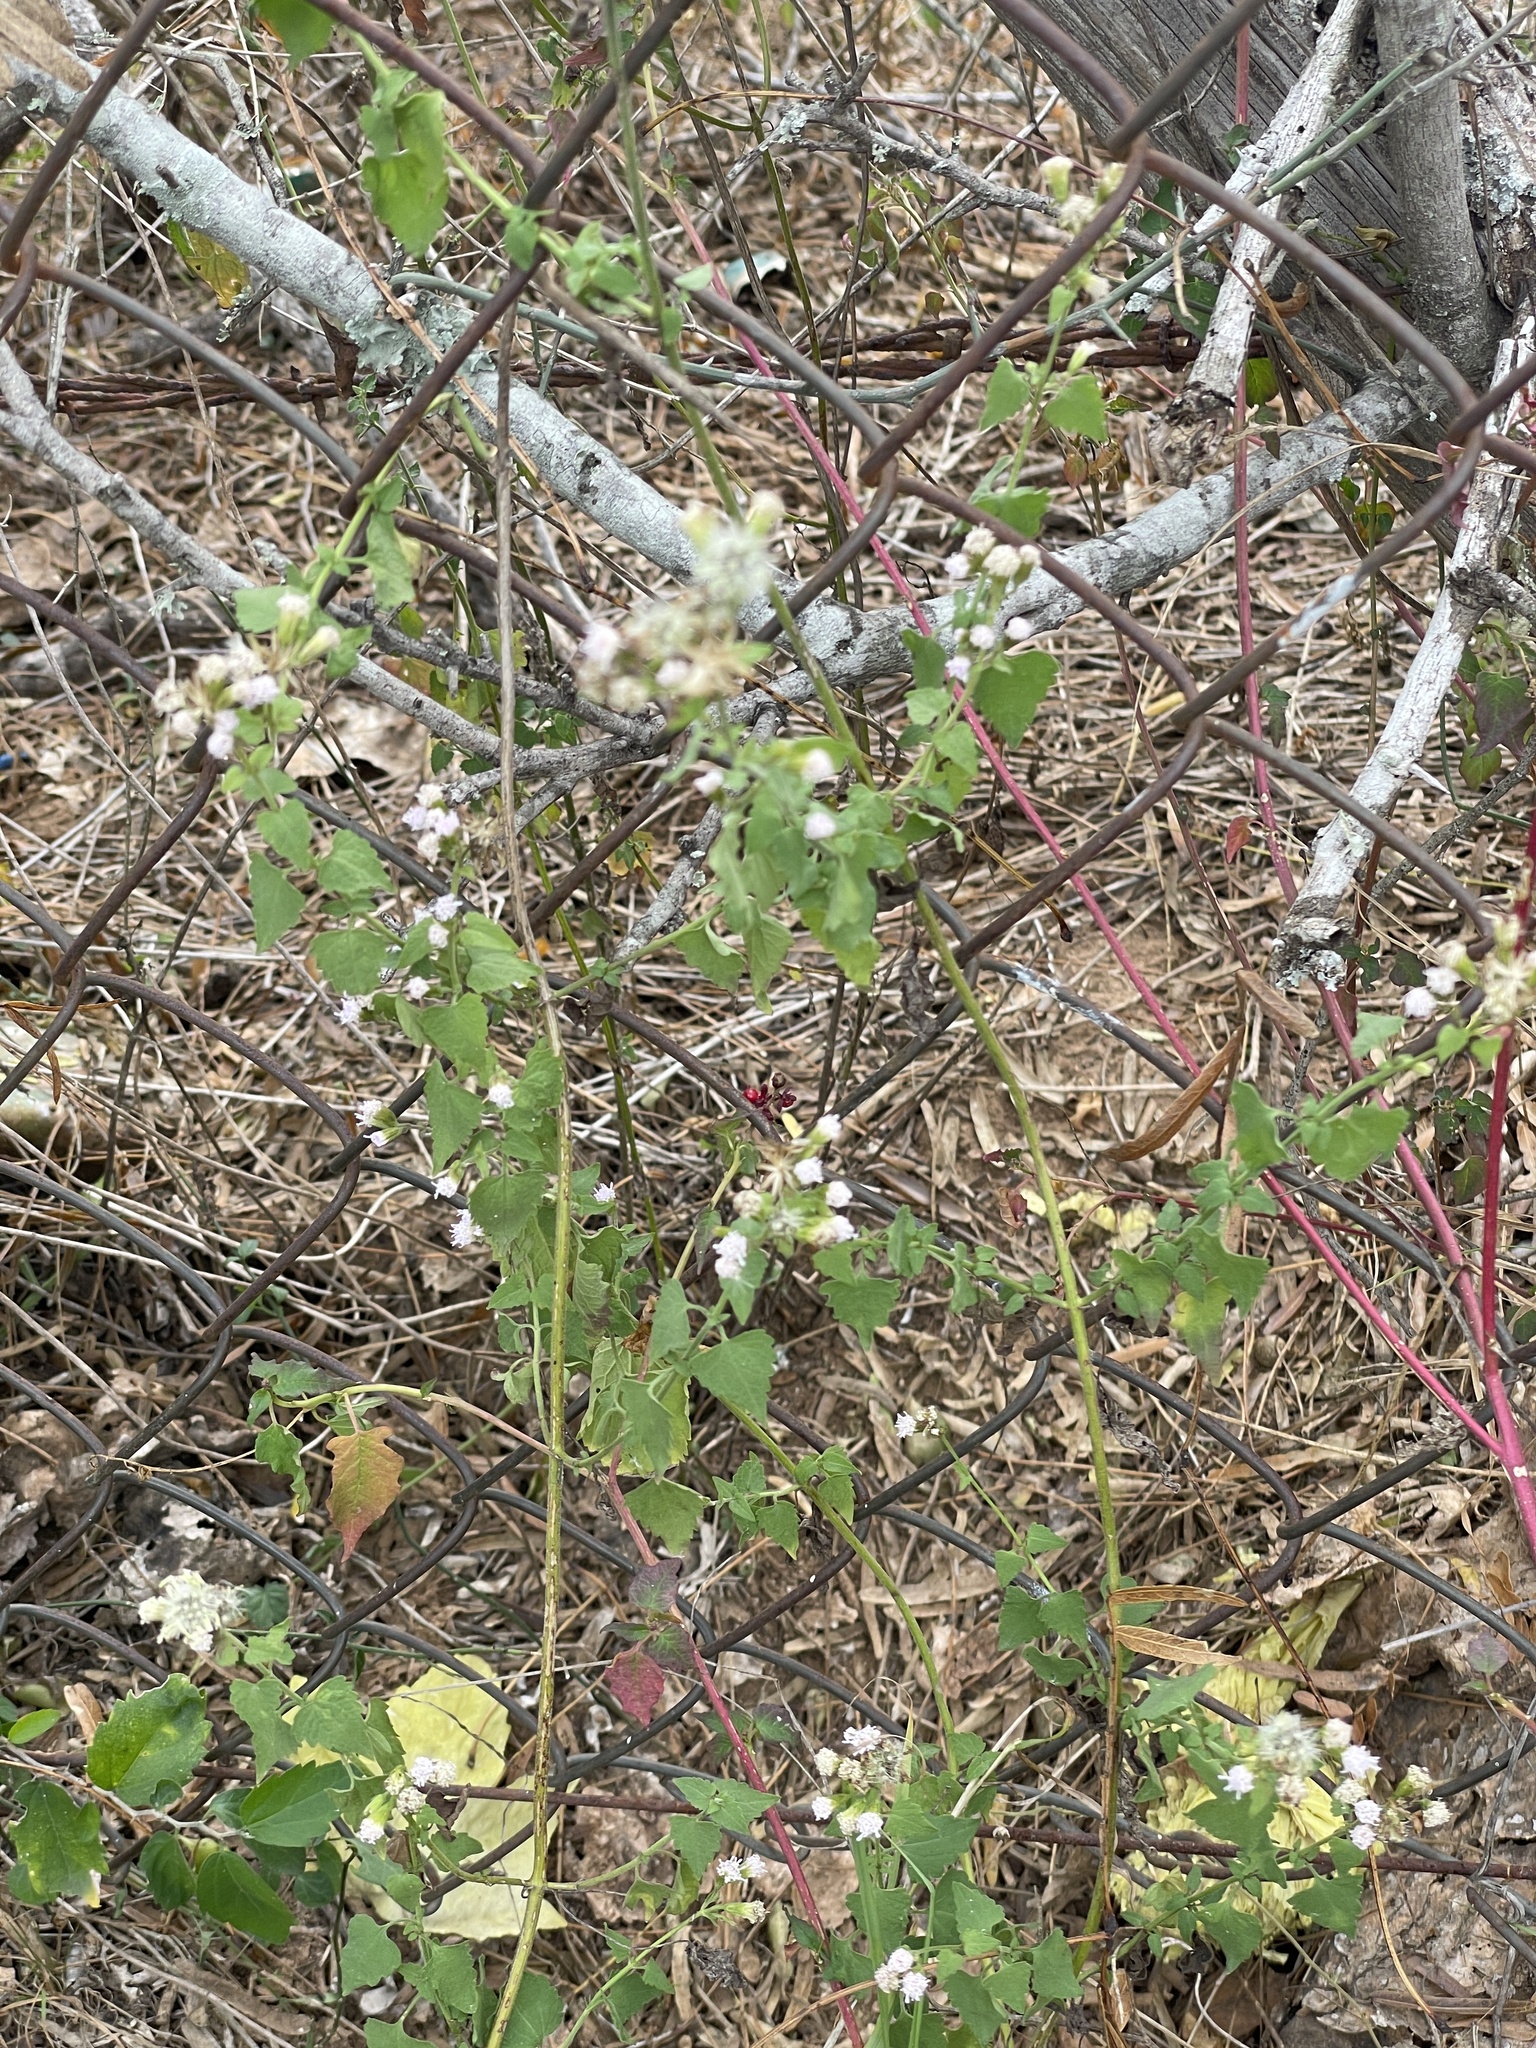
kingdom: Plantae
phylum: Tracheophyta
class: Magnoliopsida
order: Asterales
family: Asteraceae
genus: Fleischmannia
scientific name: Fleischmannia incarnata
